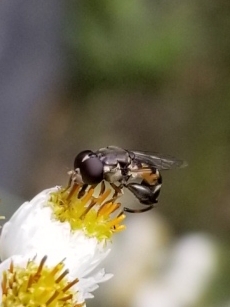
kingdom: Animalia
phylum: Arthropoda
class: Insecta
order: Diptera
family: Syrphidae
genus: Syritta
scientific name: Syritta pipiens
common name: Hover fly
